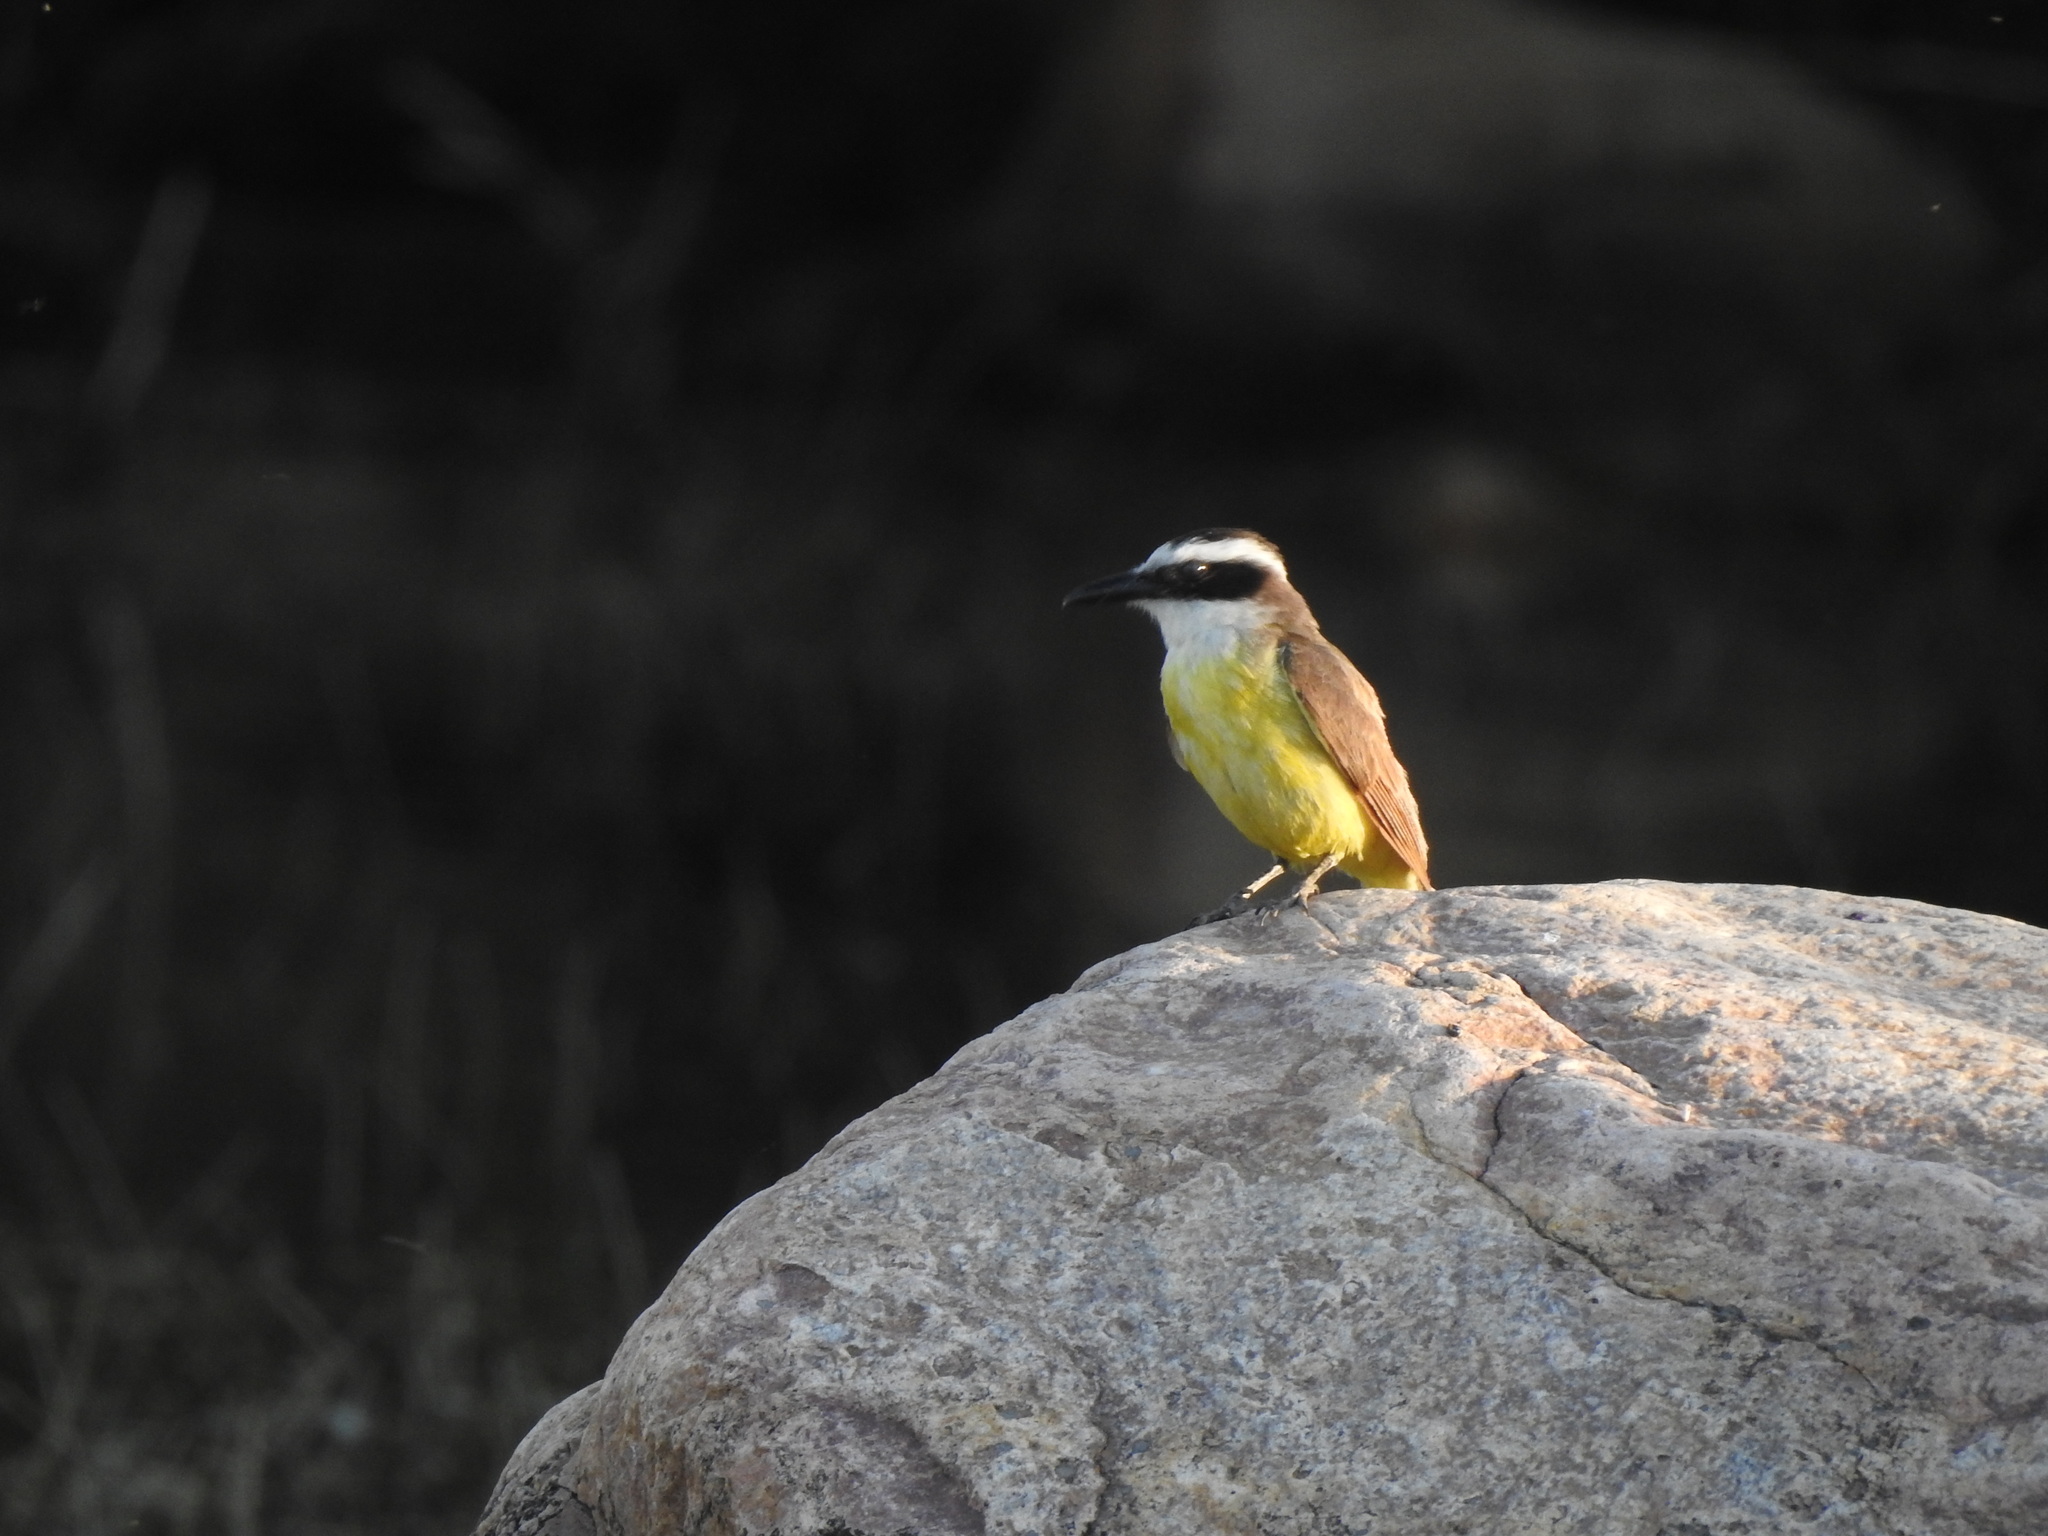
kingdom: Animalia
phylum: Chordata
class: Aves
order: Passeriformes
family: Tyrannidae
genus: Pitangus
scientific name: Pitangus sulphuratus
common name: Great kiskadee
